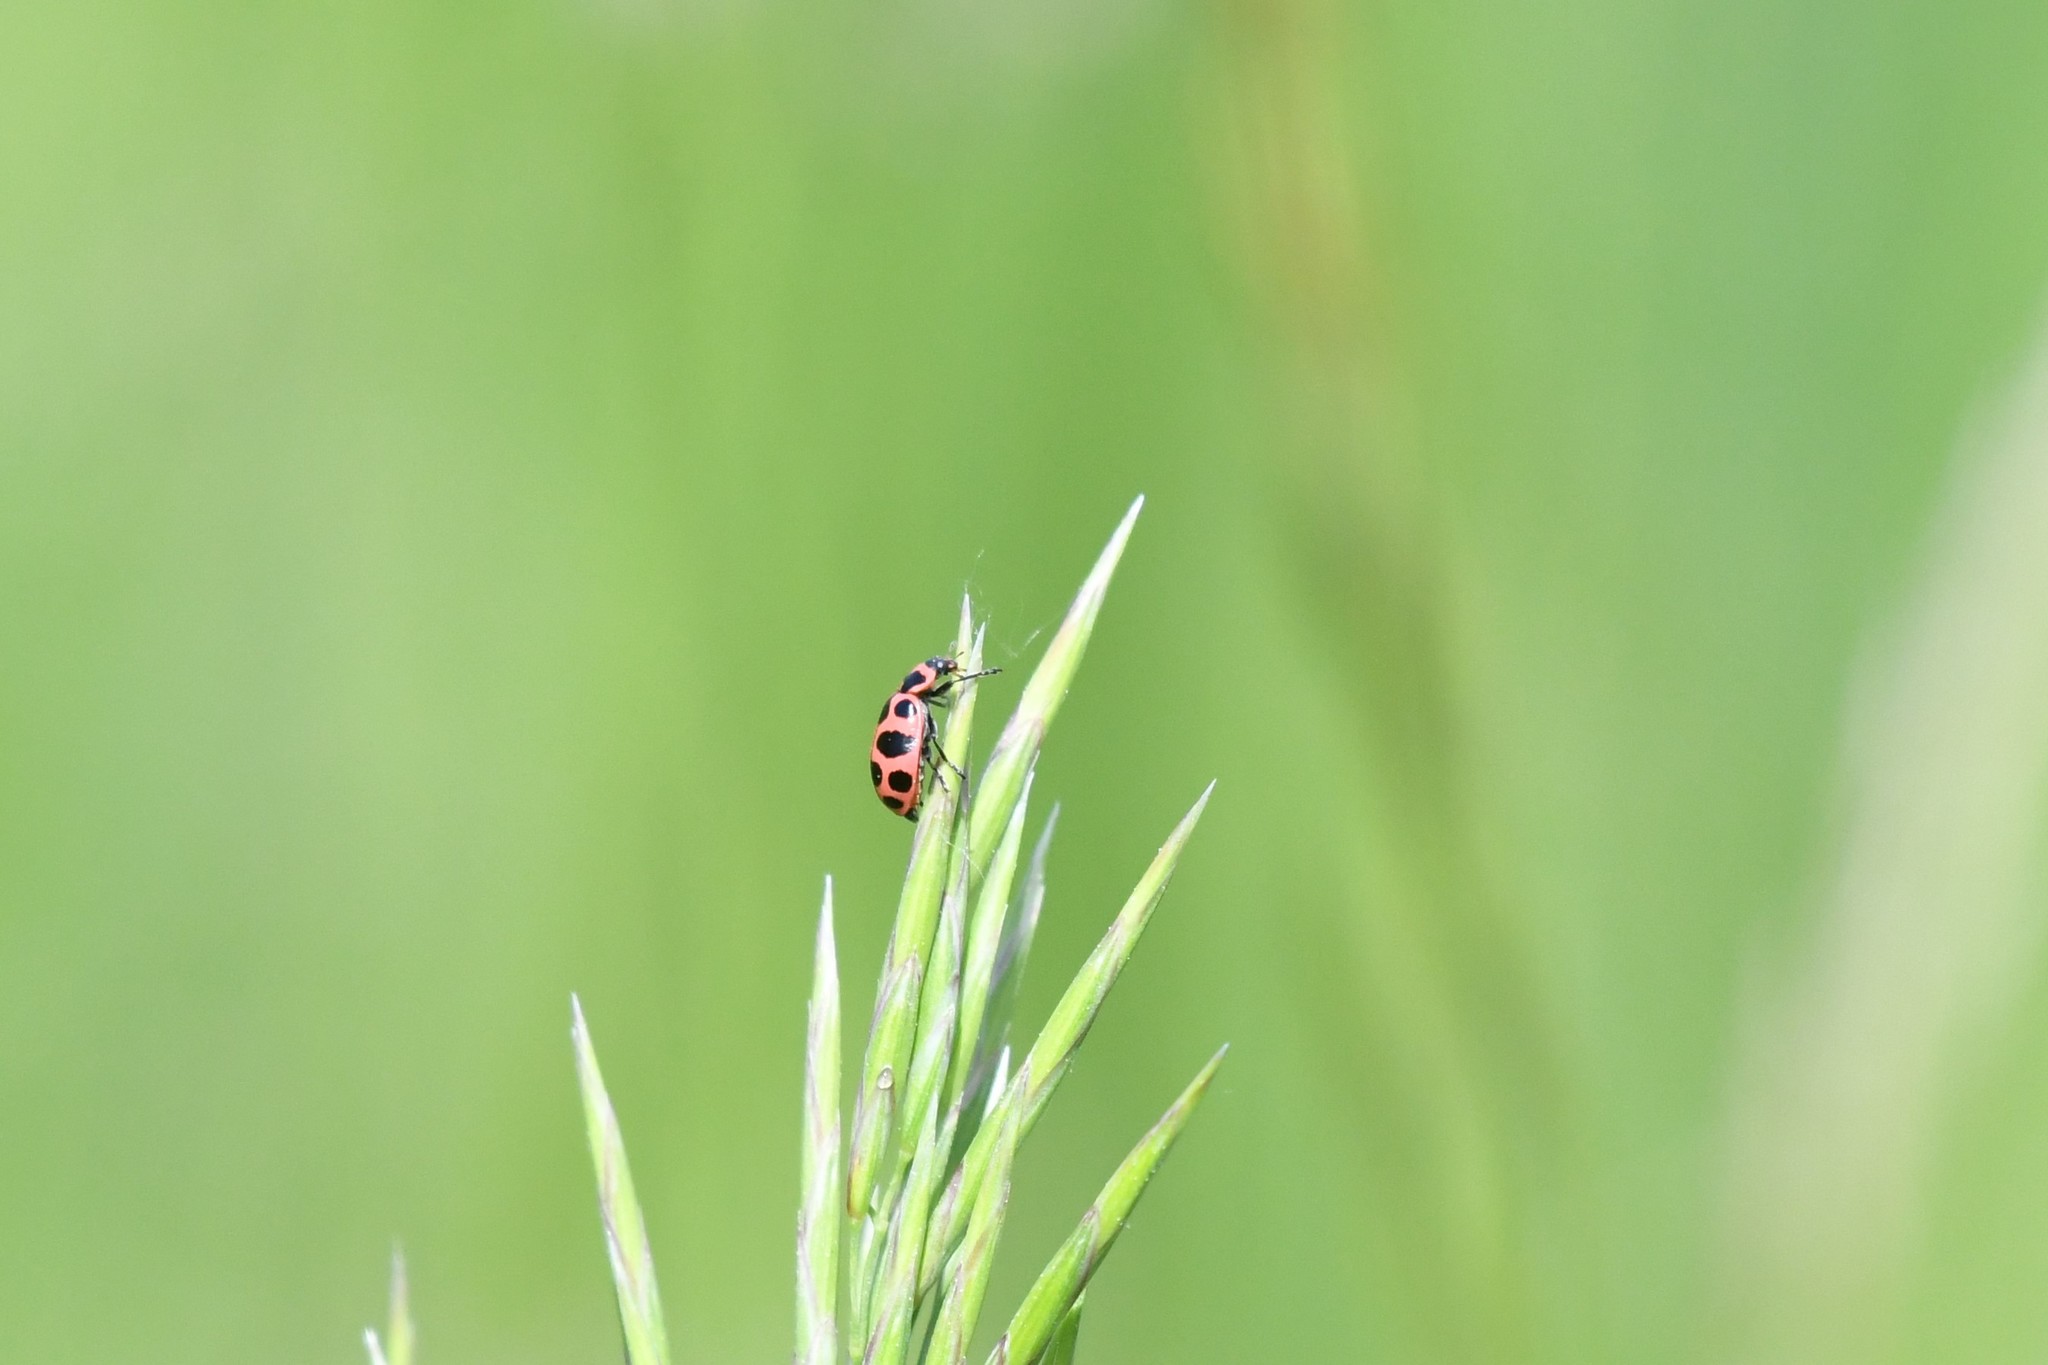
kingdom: Animalia
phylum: Arthropoda
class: Insecta
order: Coleoptera
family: Coccinellidae
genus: Coleomegilla
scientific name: Coleomegilla maculata
